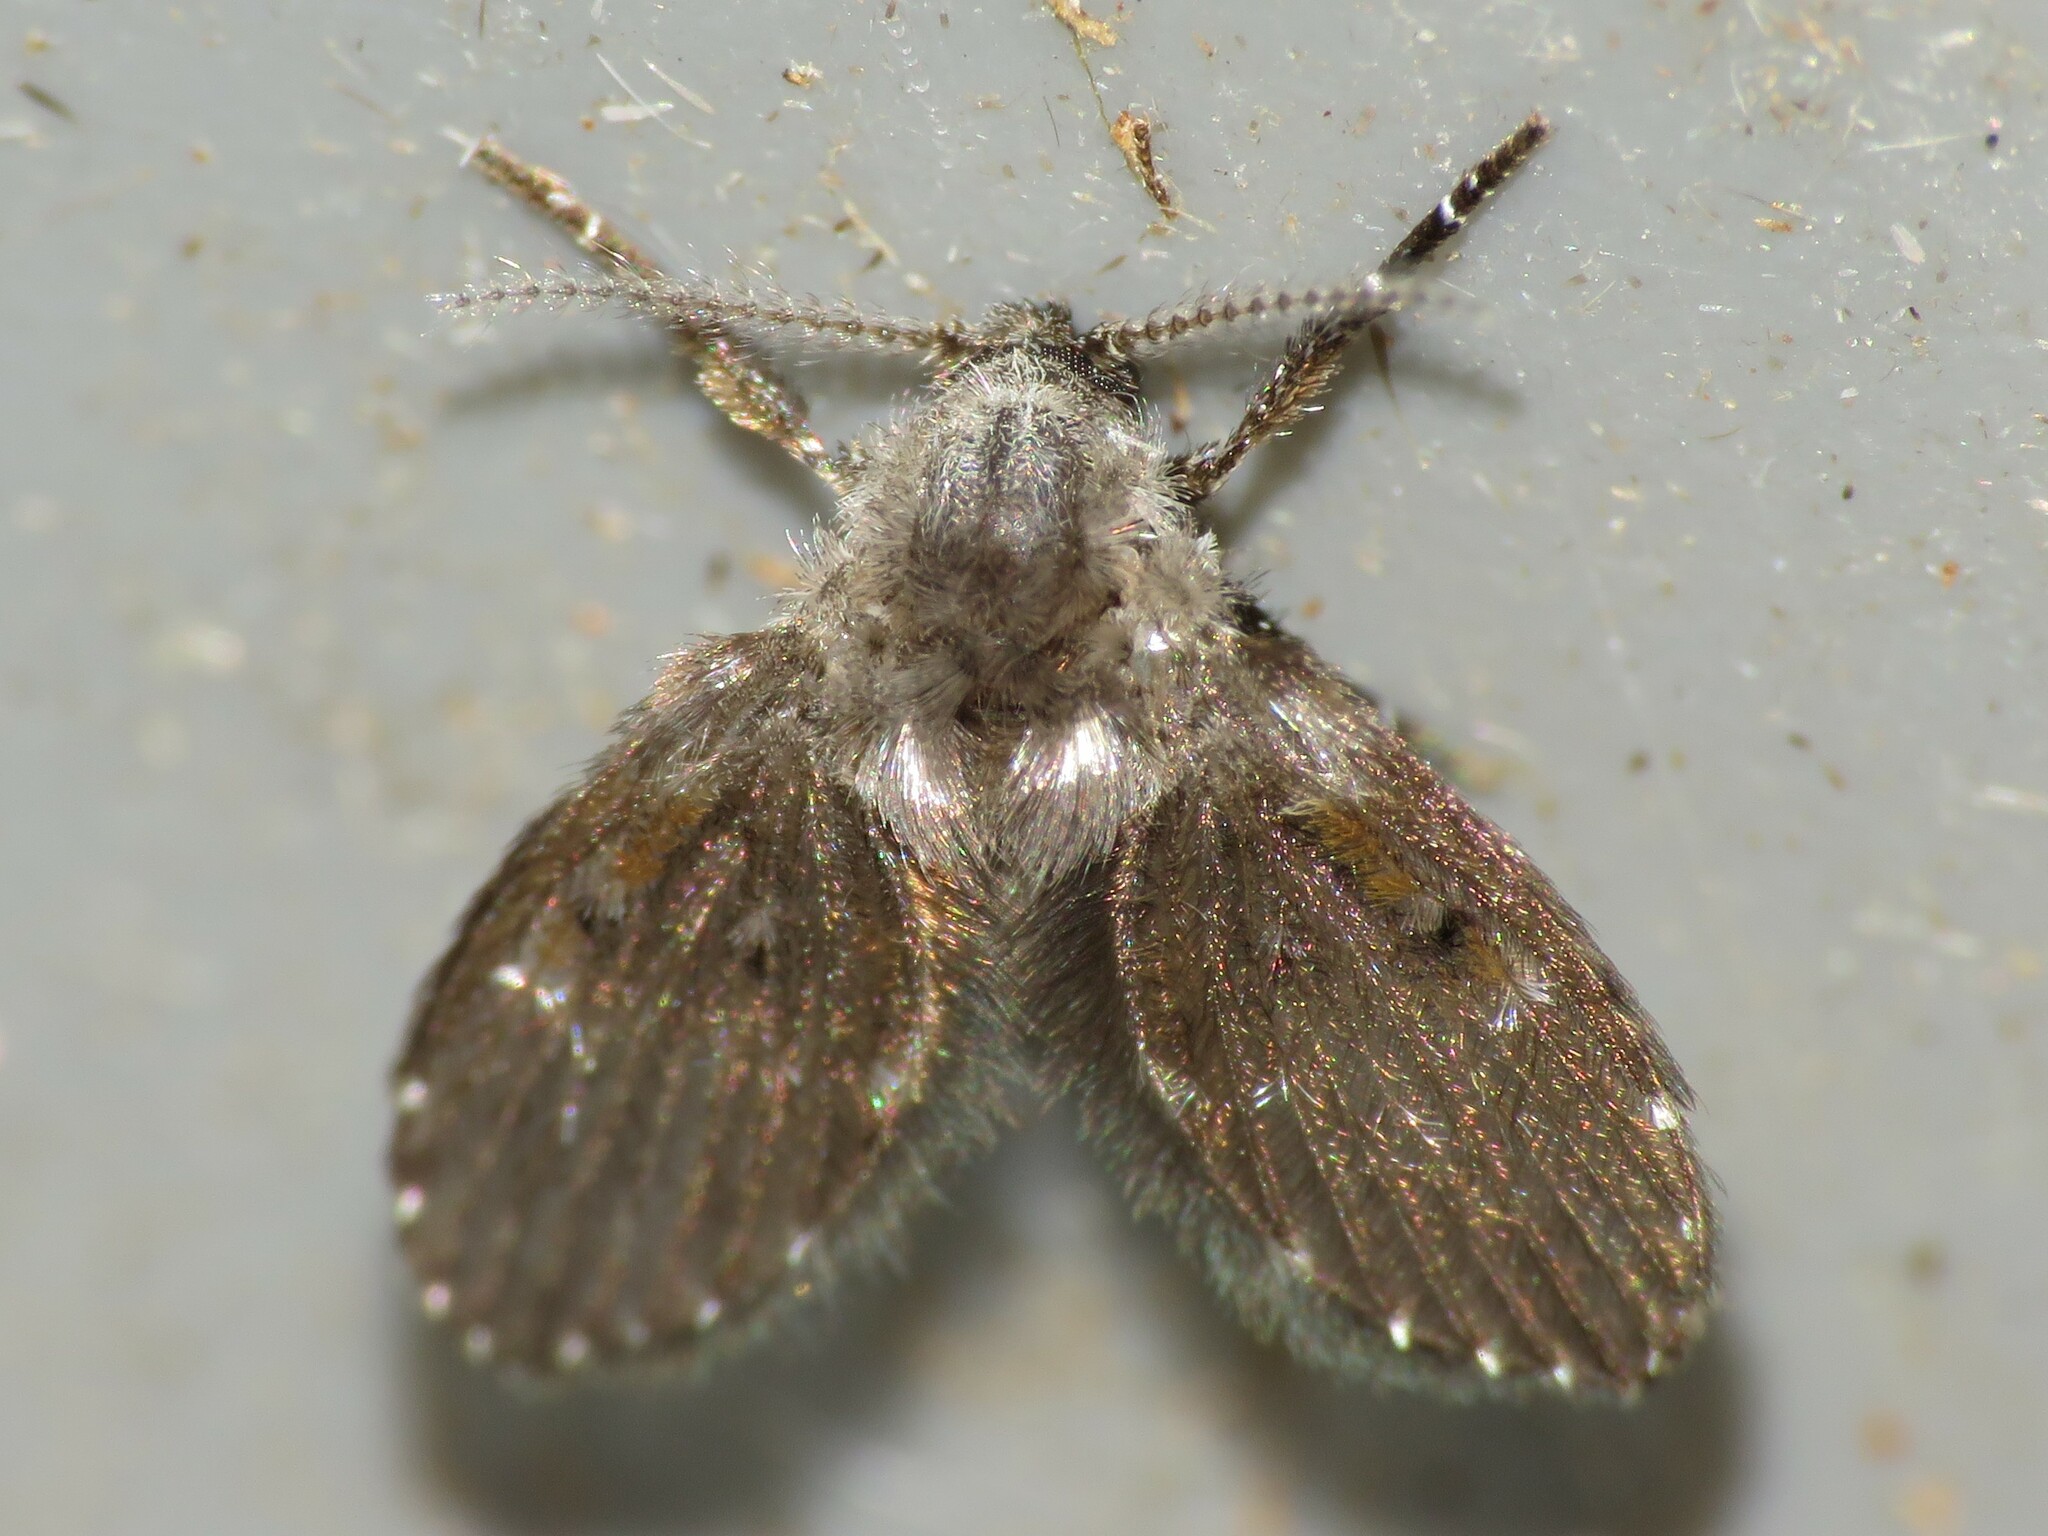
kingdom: Animalia
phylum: Arthropoda
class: Insecta
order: Diptera
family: Psychodidae
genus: Clogmia
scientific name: Clogmia albipunctatus
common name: White-spotted moth fly
